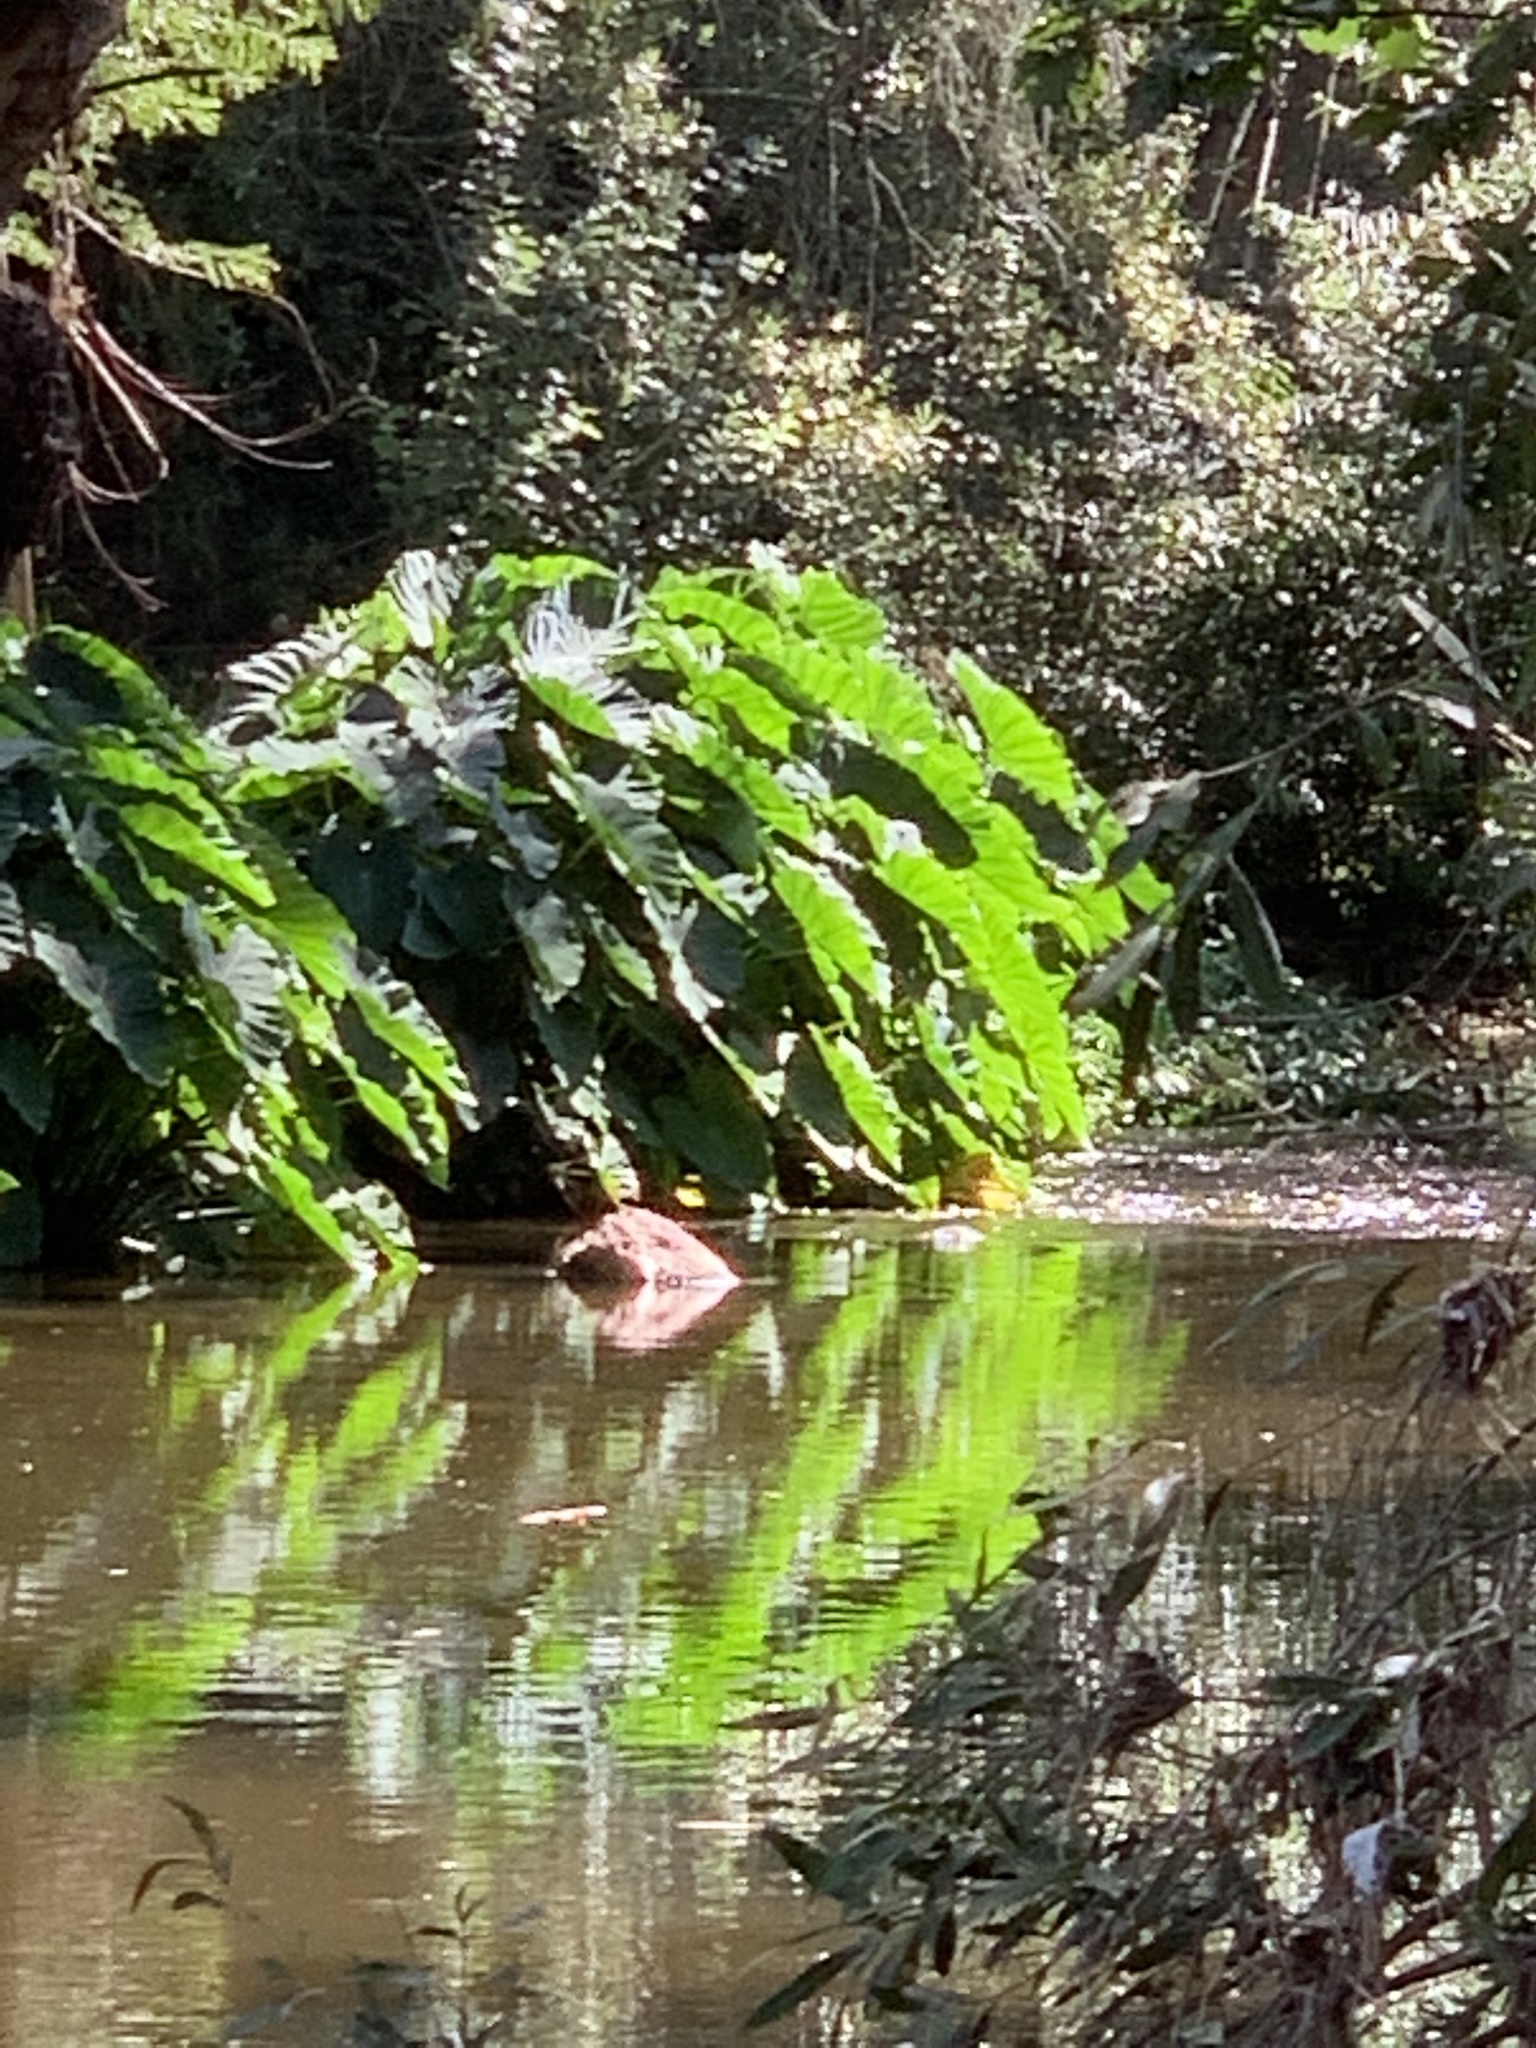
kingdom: Plantae
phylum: Tracheophyta
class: Liliopsida
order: Alismatales
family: Araceae
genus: Colocasia
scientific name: Colocasia esculenta
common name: Taro
